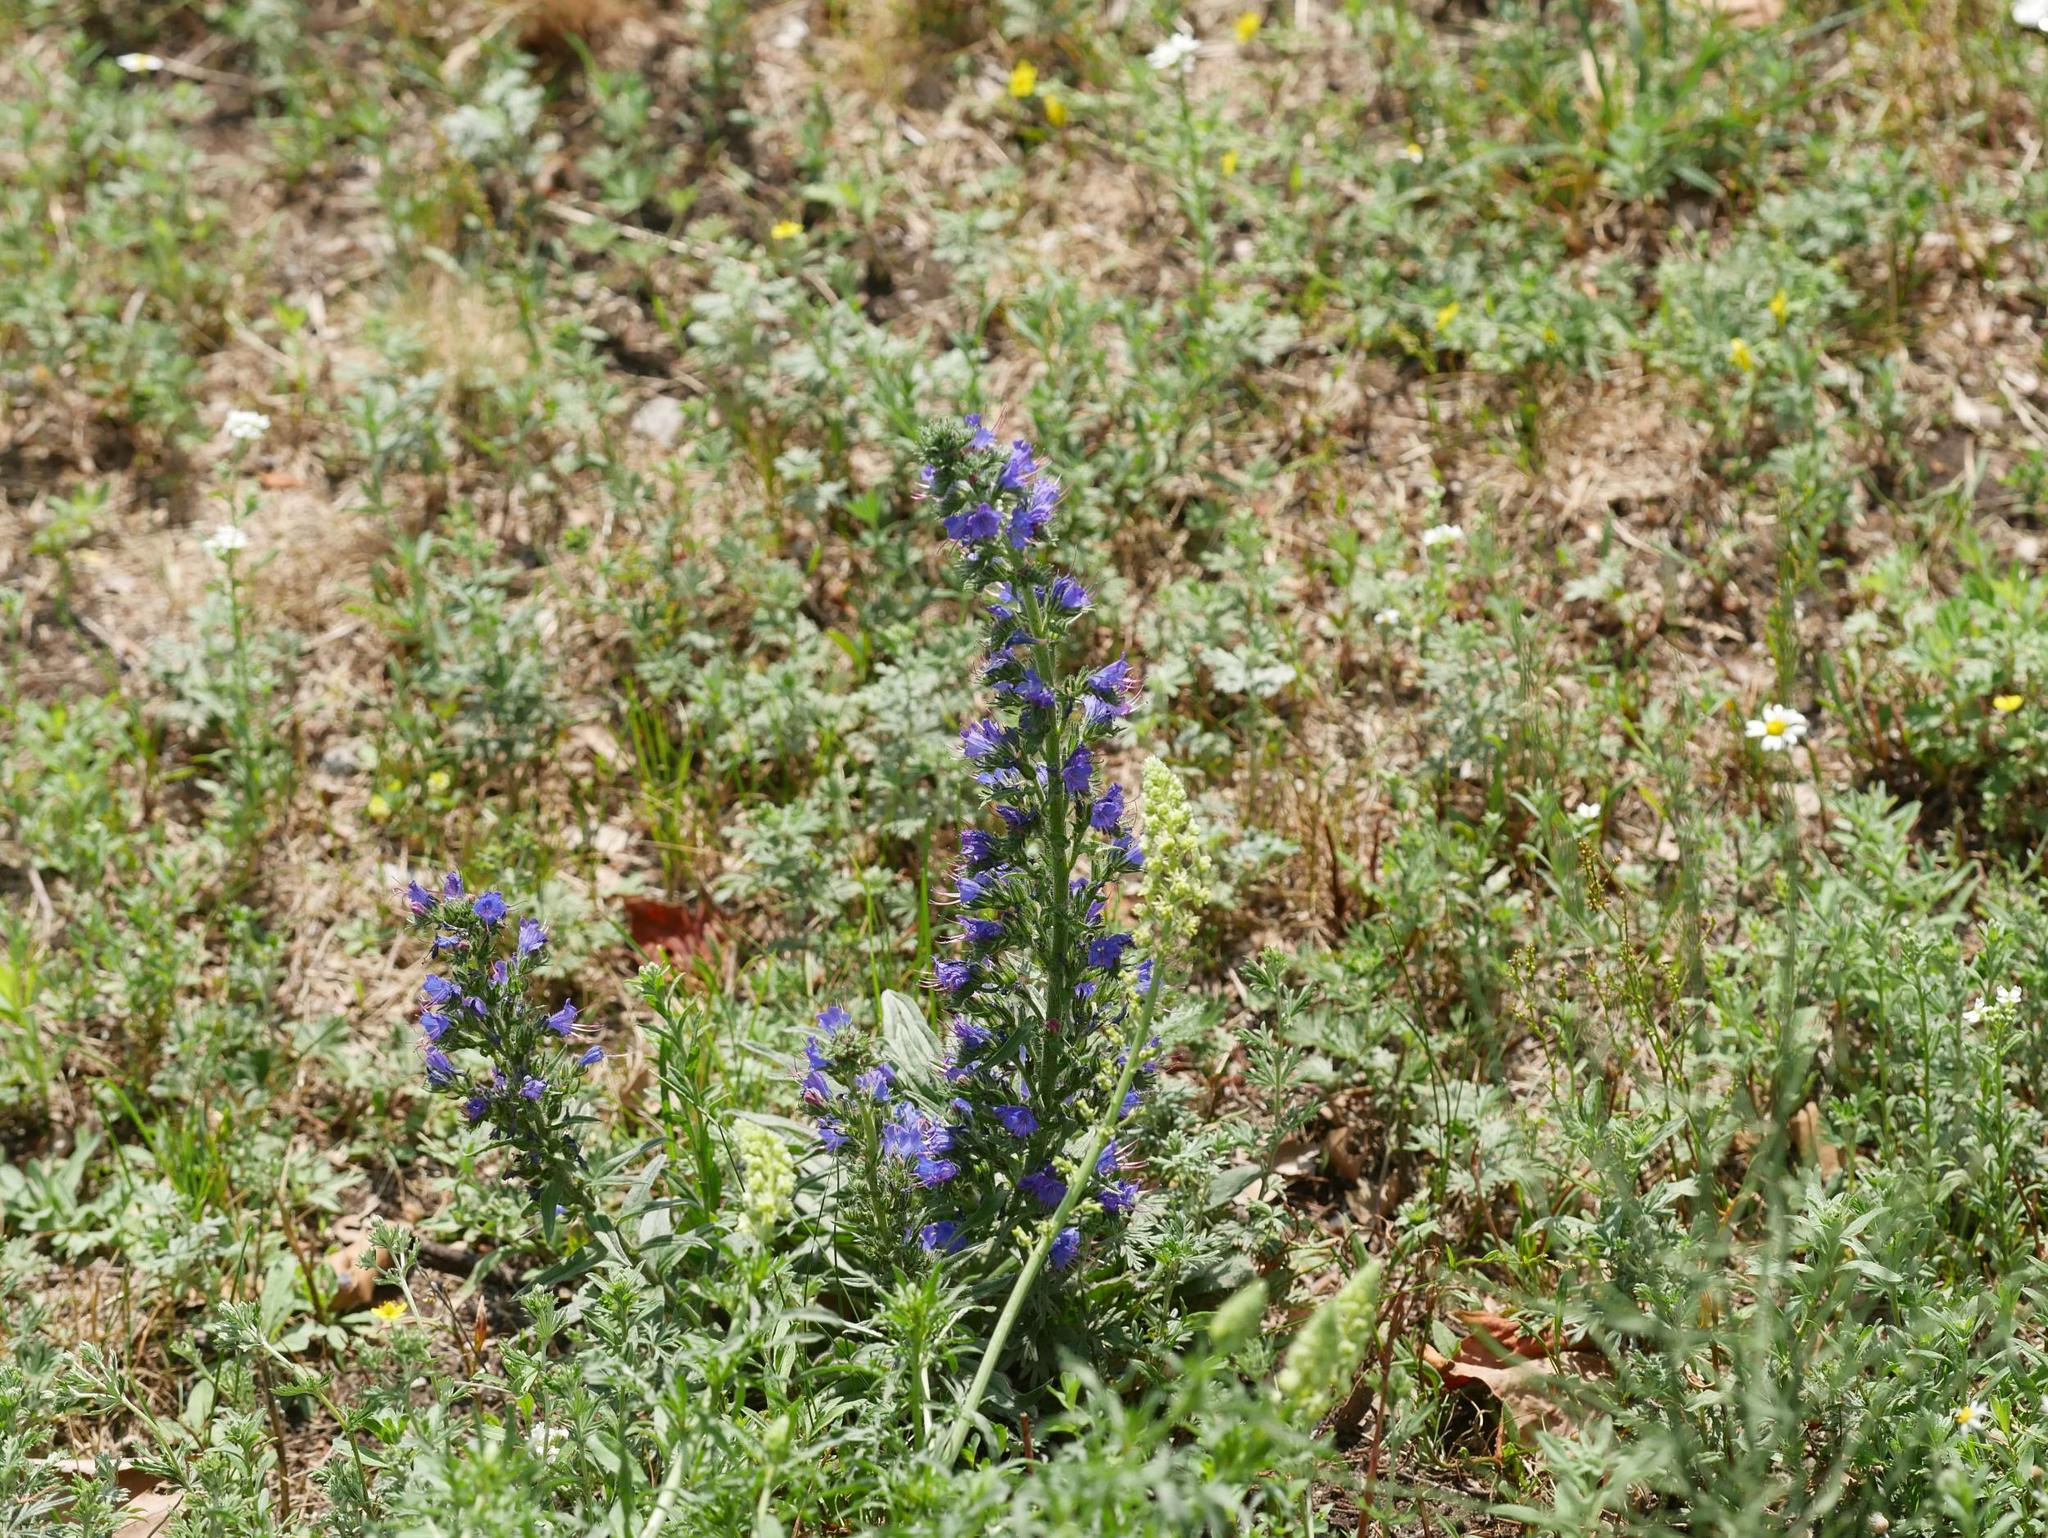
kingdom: Plantae
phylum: Tracheophyta
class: Magnoliopsida
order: Boraginales
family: Boraginaceae
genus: Echium
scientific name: Echium vulgare
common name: Common viper's bugloss
